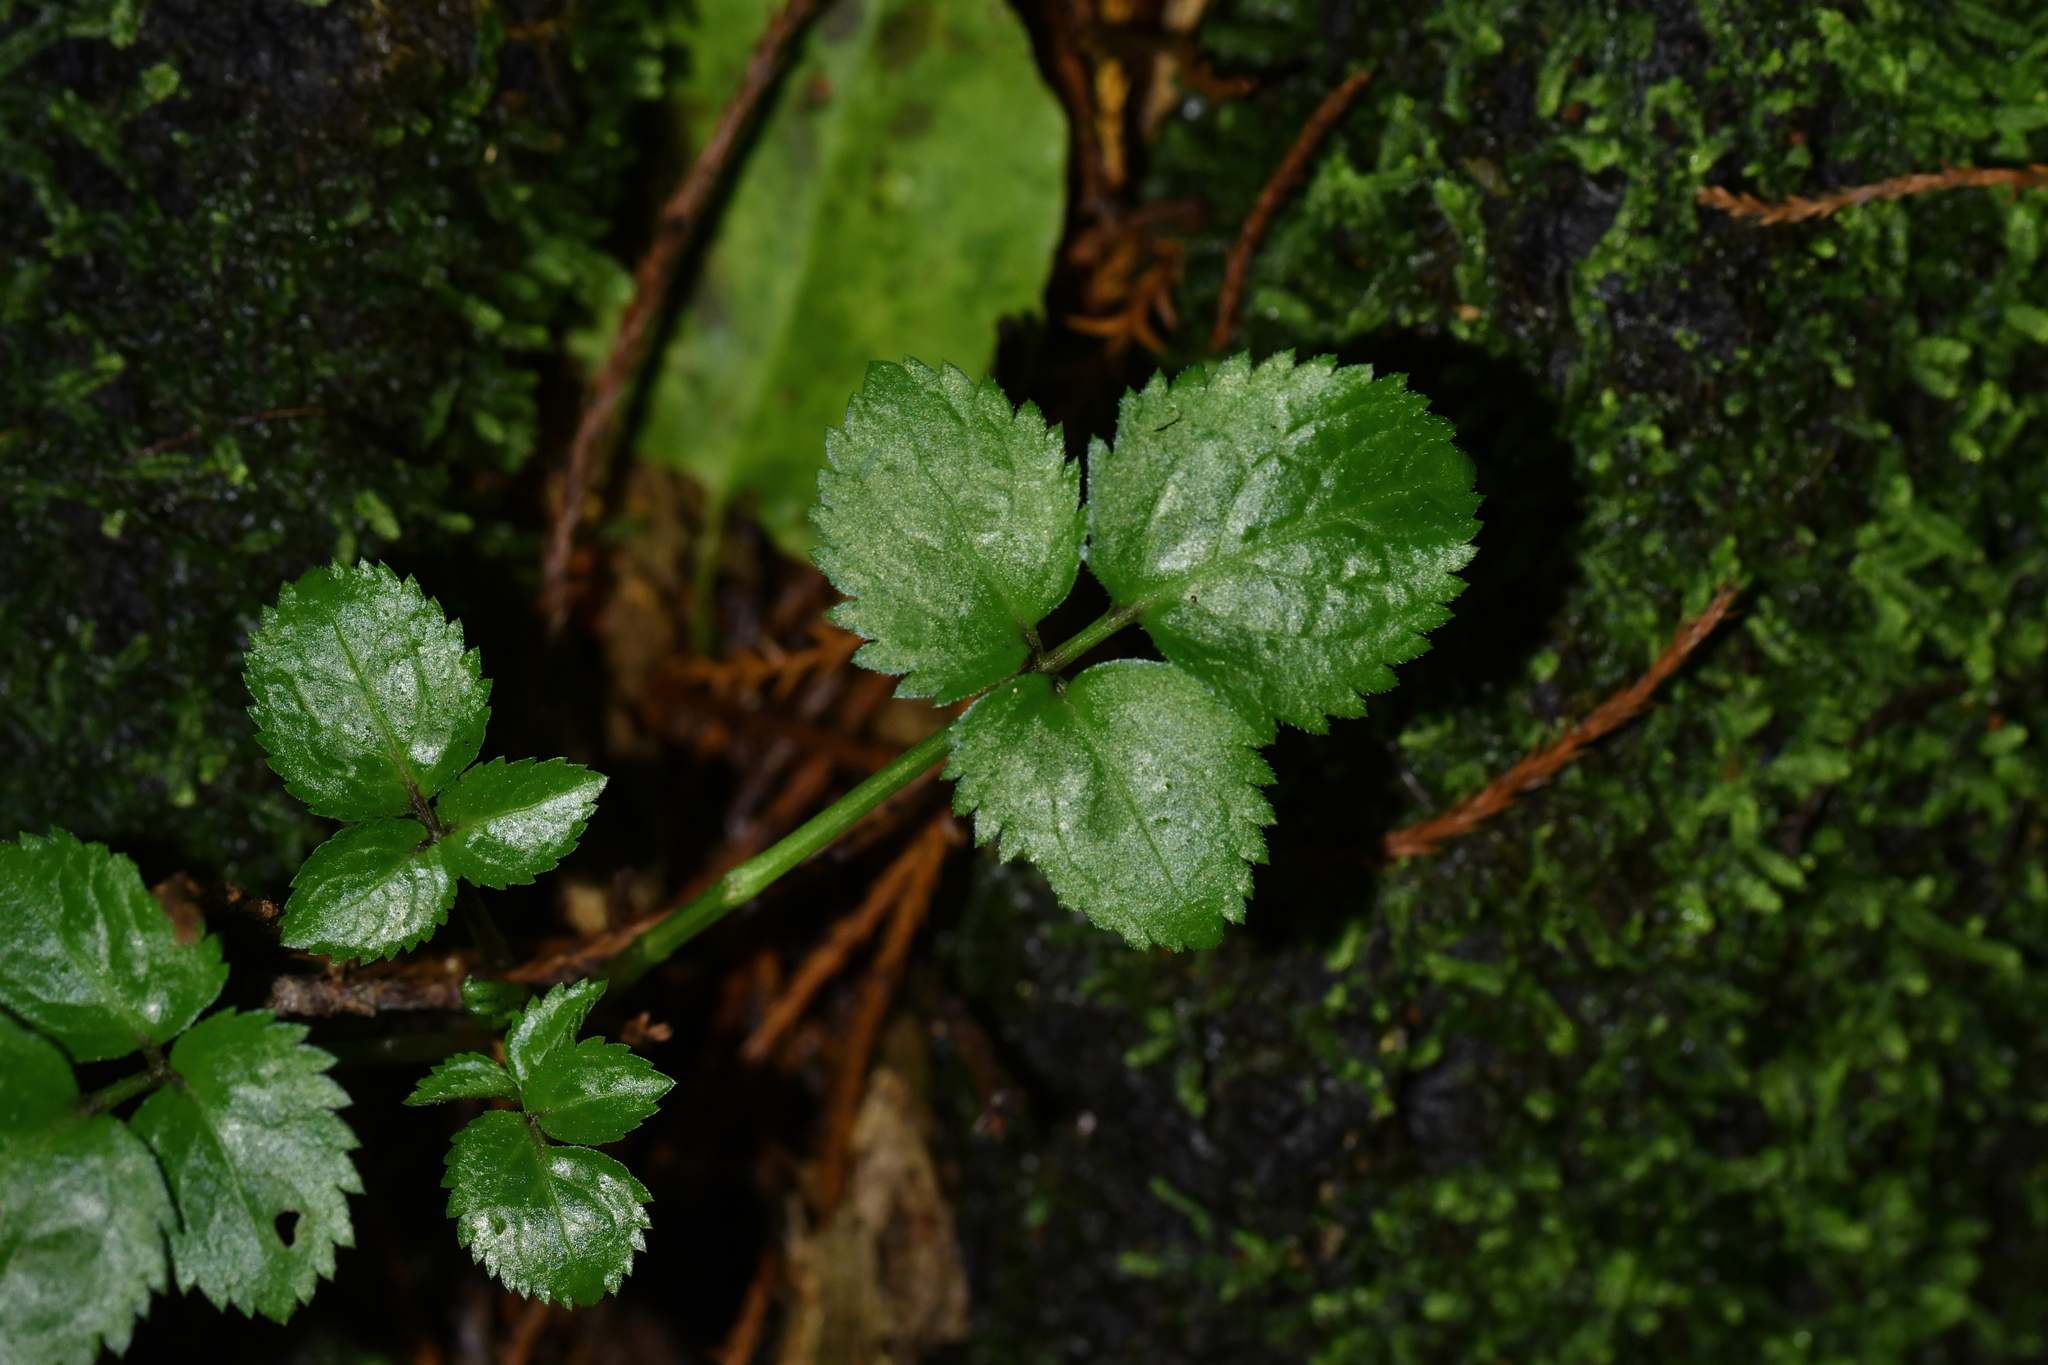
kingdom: Plantae
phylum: Tracheophyta
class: Magnoliopsida
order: Dipsacales
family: Viburnaceae
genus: Sambucus
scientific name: Sambucus nigra
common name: Elder
